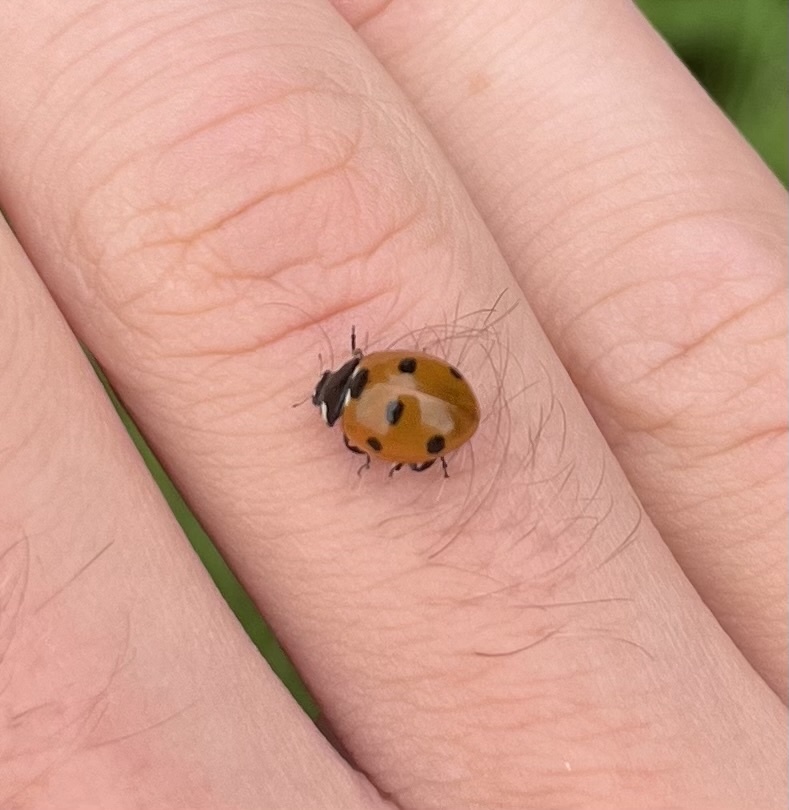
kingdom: Animalia
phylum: Arthropoda
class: Insecta
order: Coleoptera
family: Coccinellidae
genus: Coccinella
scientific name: Coccinella septempunctata
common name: Sevenspotted lady beetle
